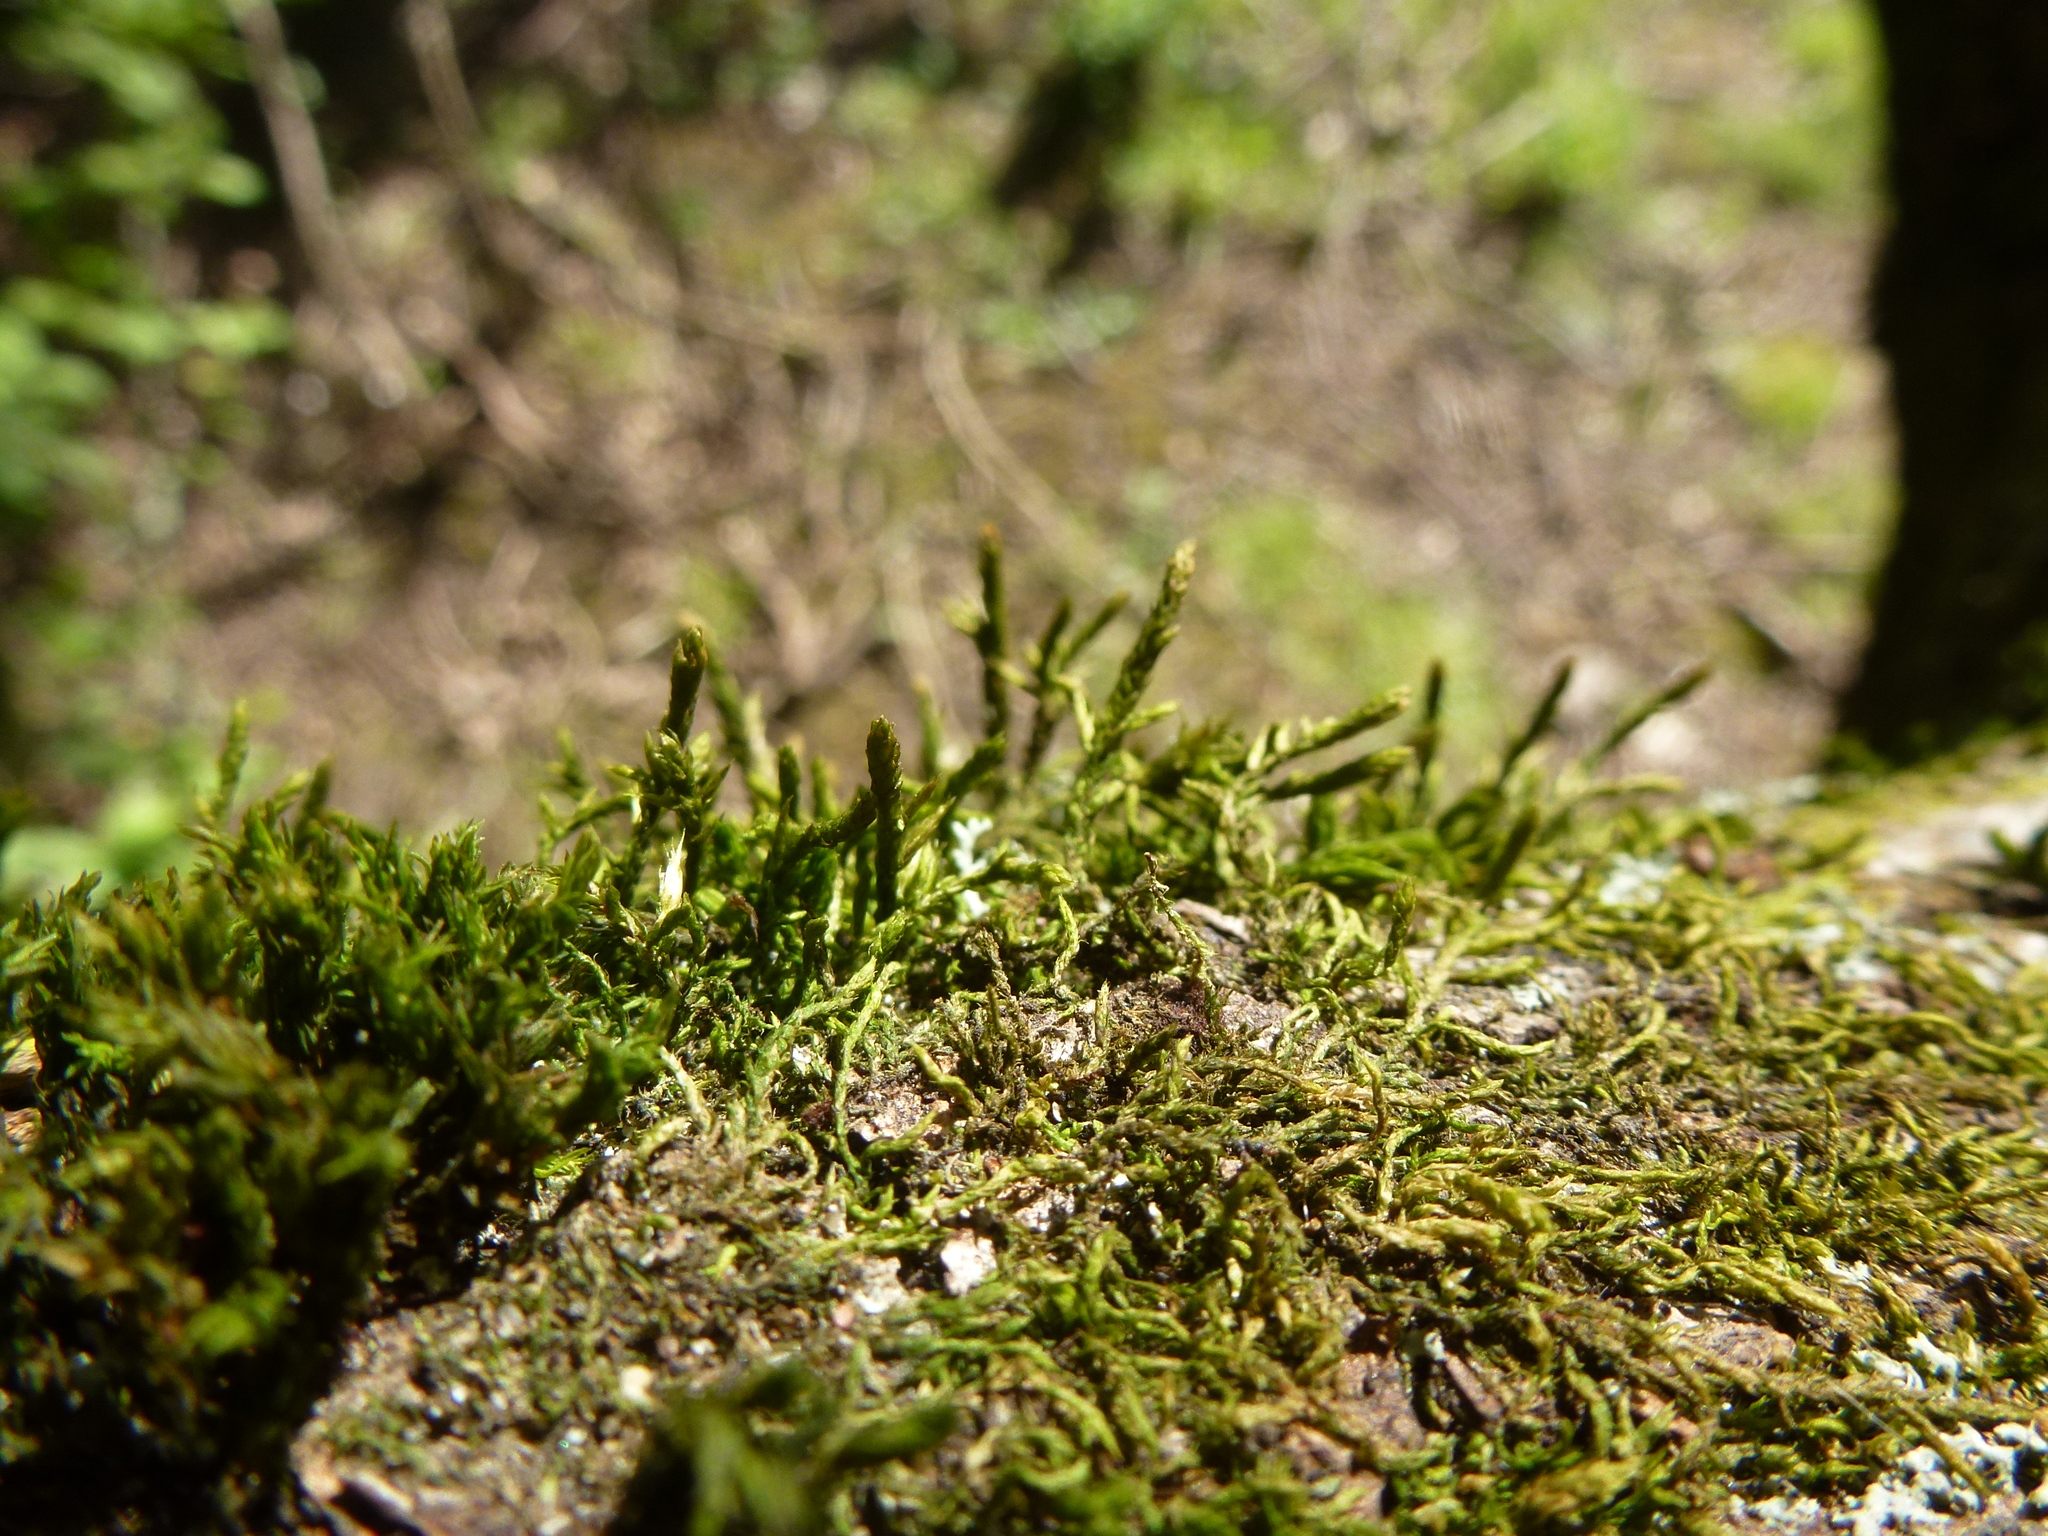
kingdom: Plantae
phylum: Bryophyta
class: Bryopsida
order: Hypnales
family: Cryphaeaceae
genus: Cryphaea
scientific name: Cryphaea heteromalla
